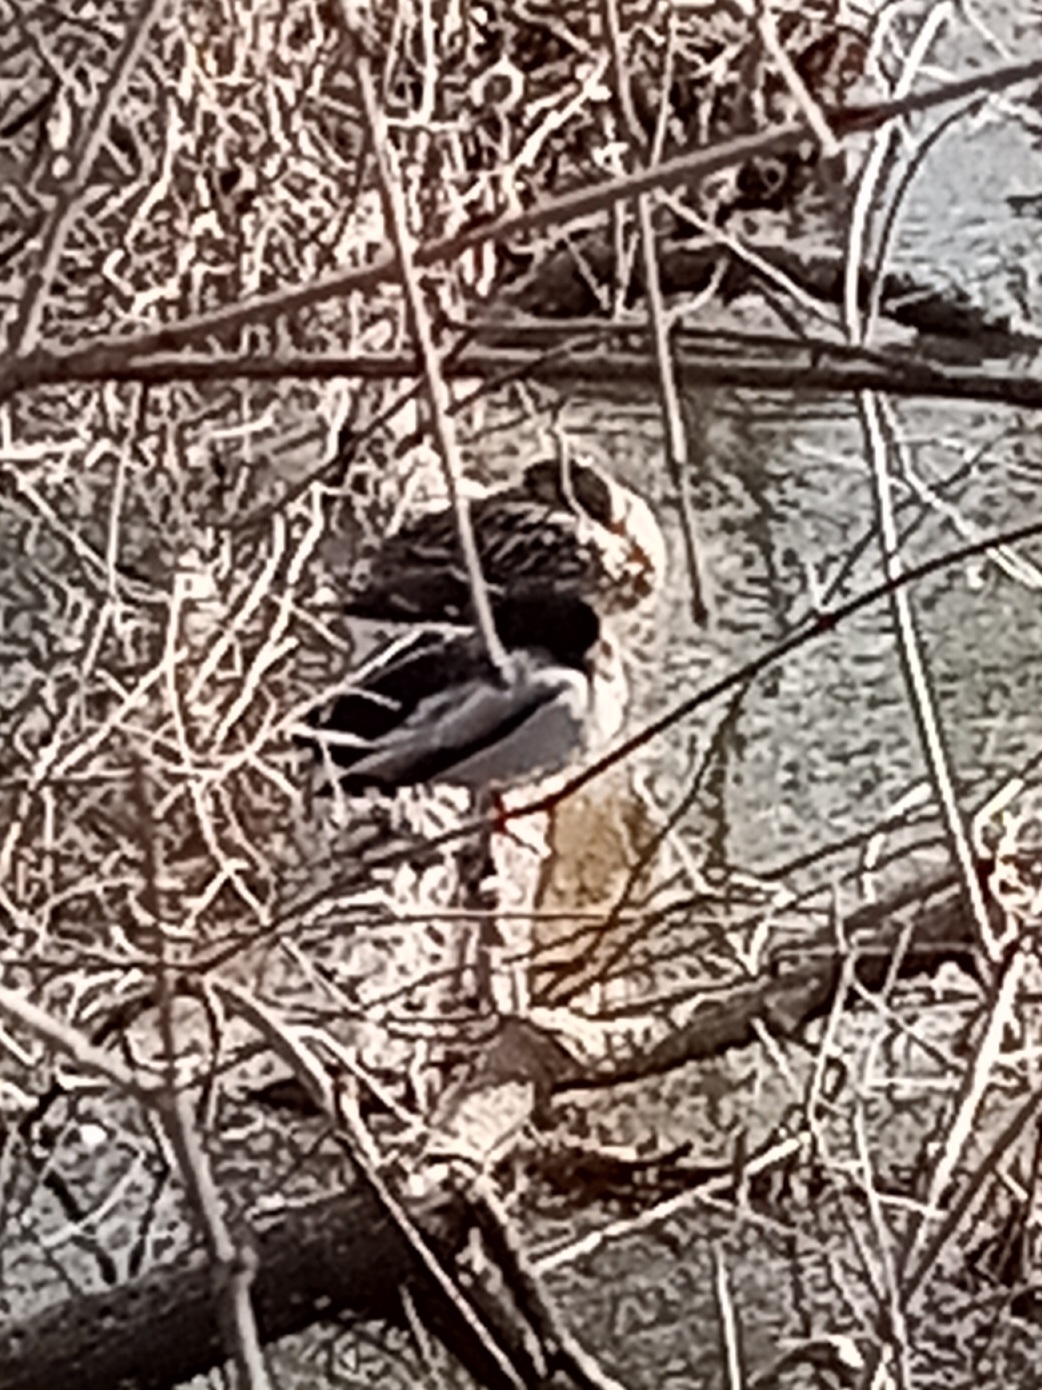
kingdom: Animalia
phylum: Chordata
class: Aves
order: Anseriformes
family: Anatidae
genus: Anas
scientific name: Anas platyrhynchos
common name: Mallard
